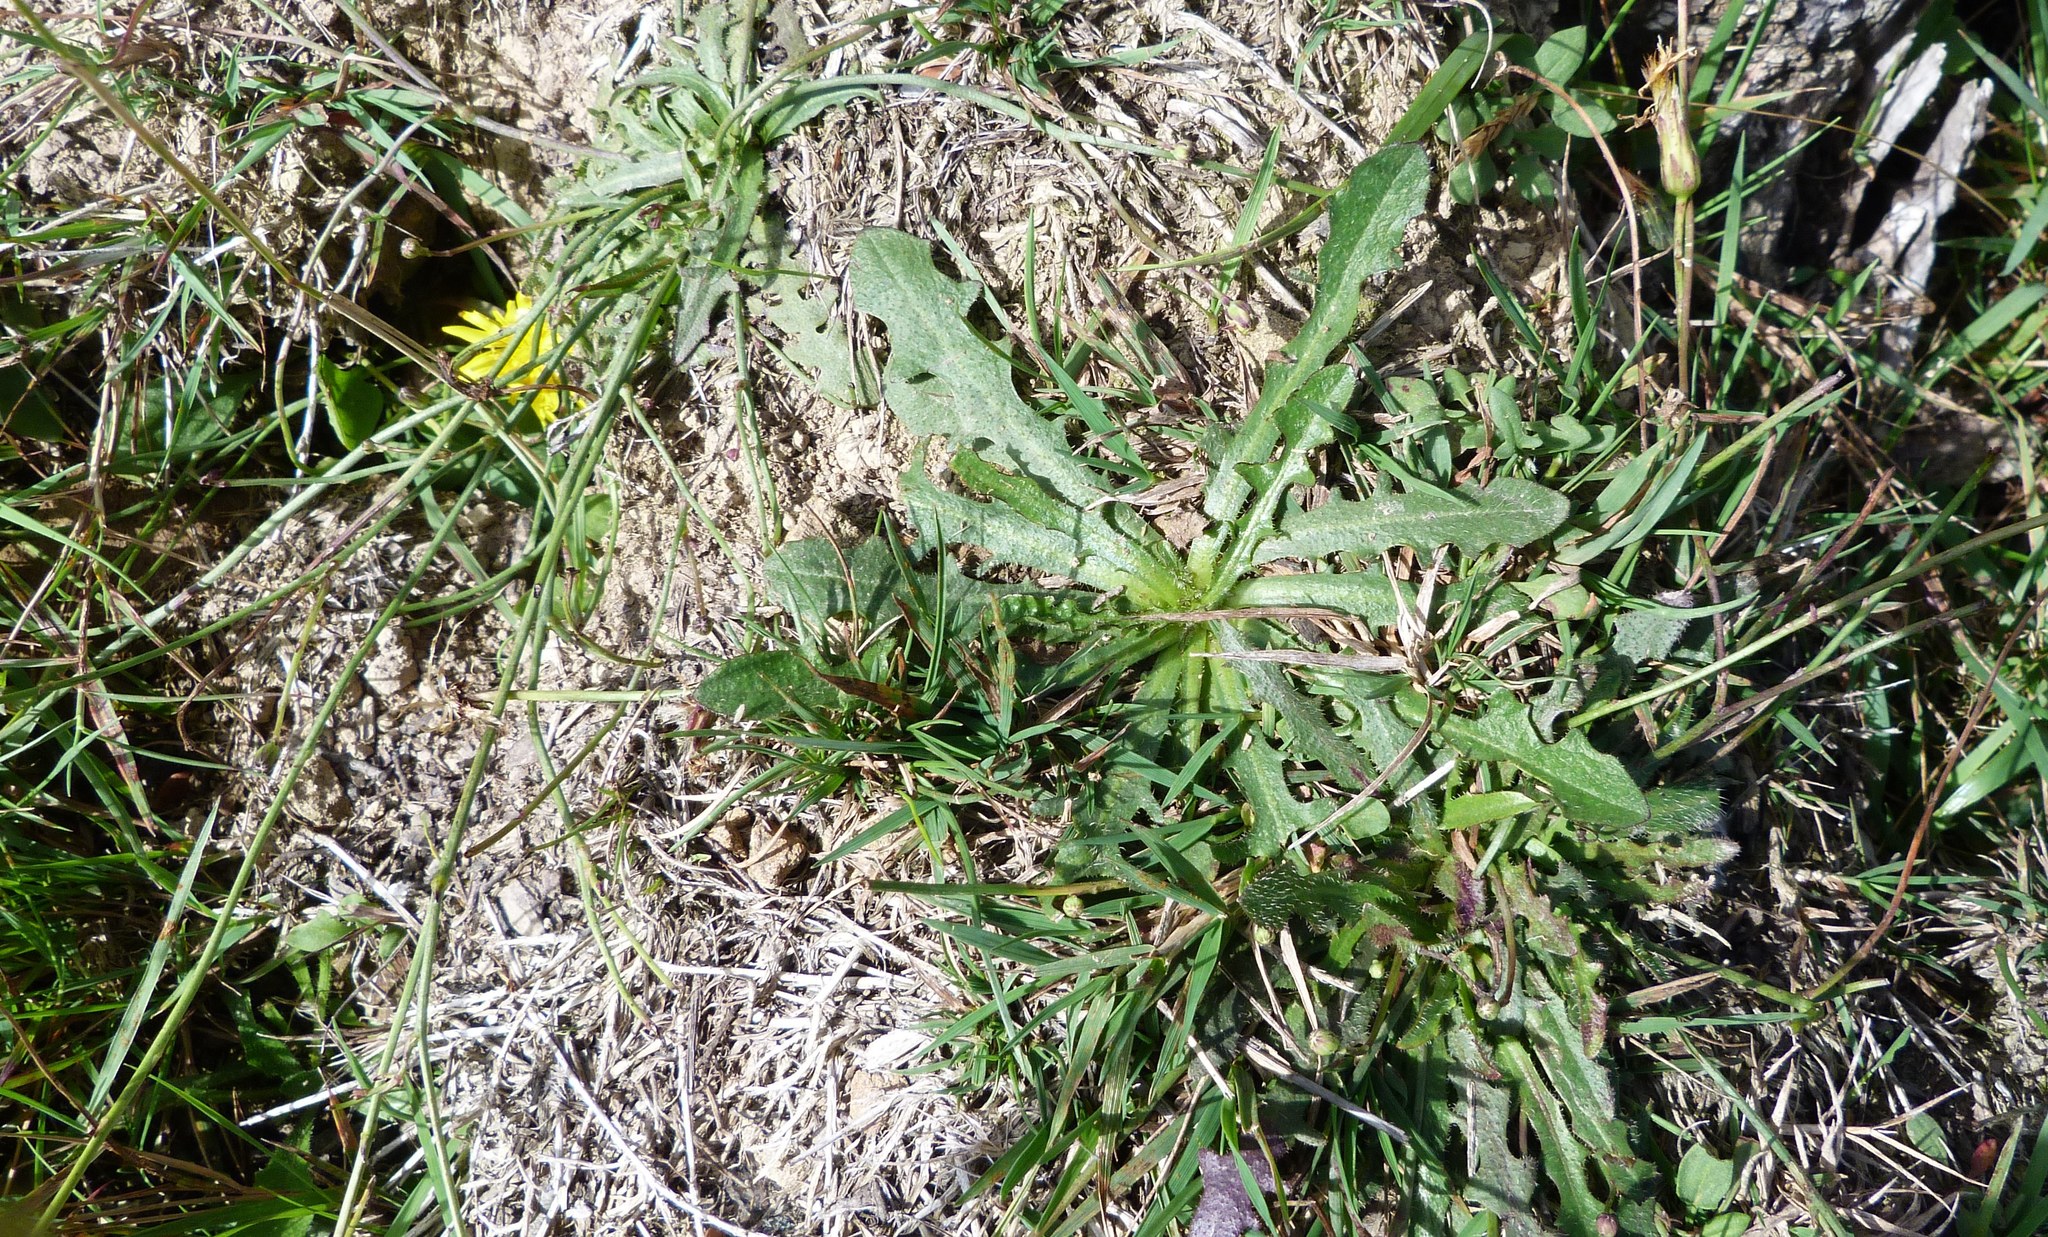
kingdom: Plantae
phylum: Tracheophyta
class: Magnoliopsida
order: Asterales
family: Asteraceae
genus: Hypochaeris
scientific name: Hypochaeris radicata
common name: Flatweed
